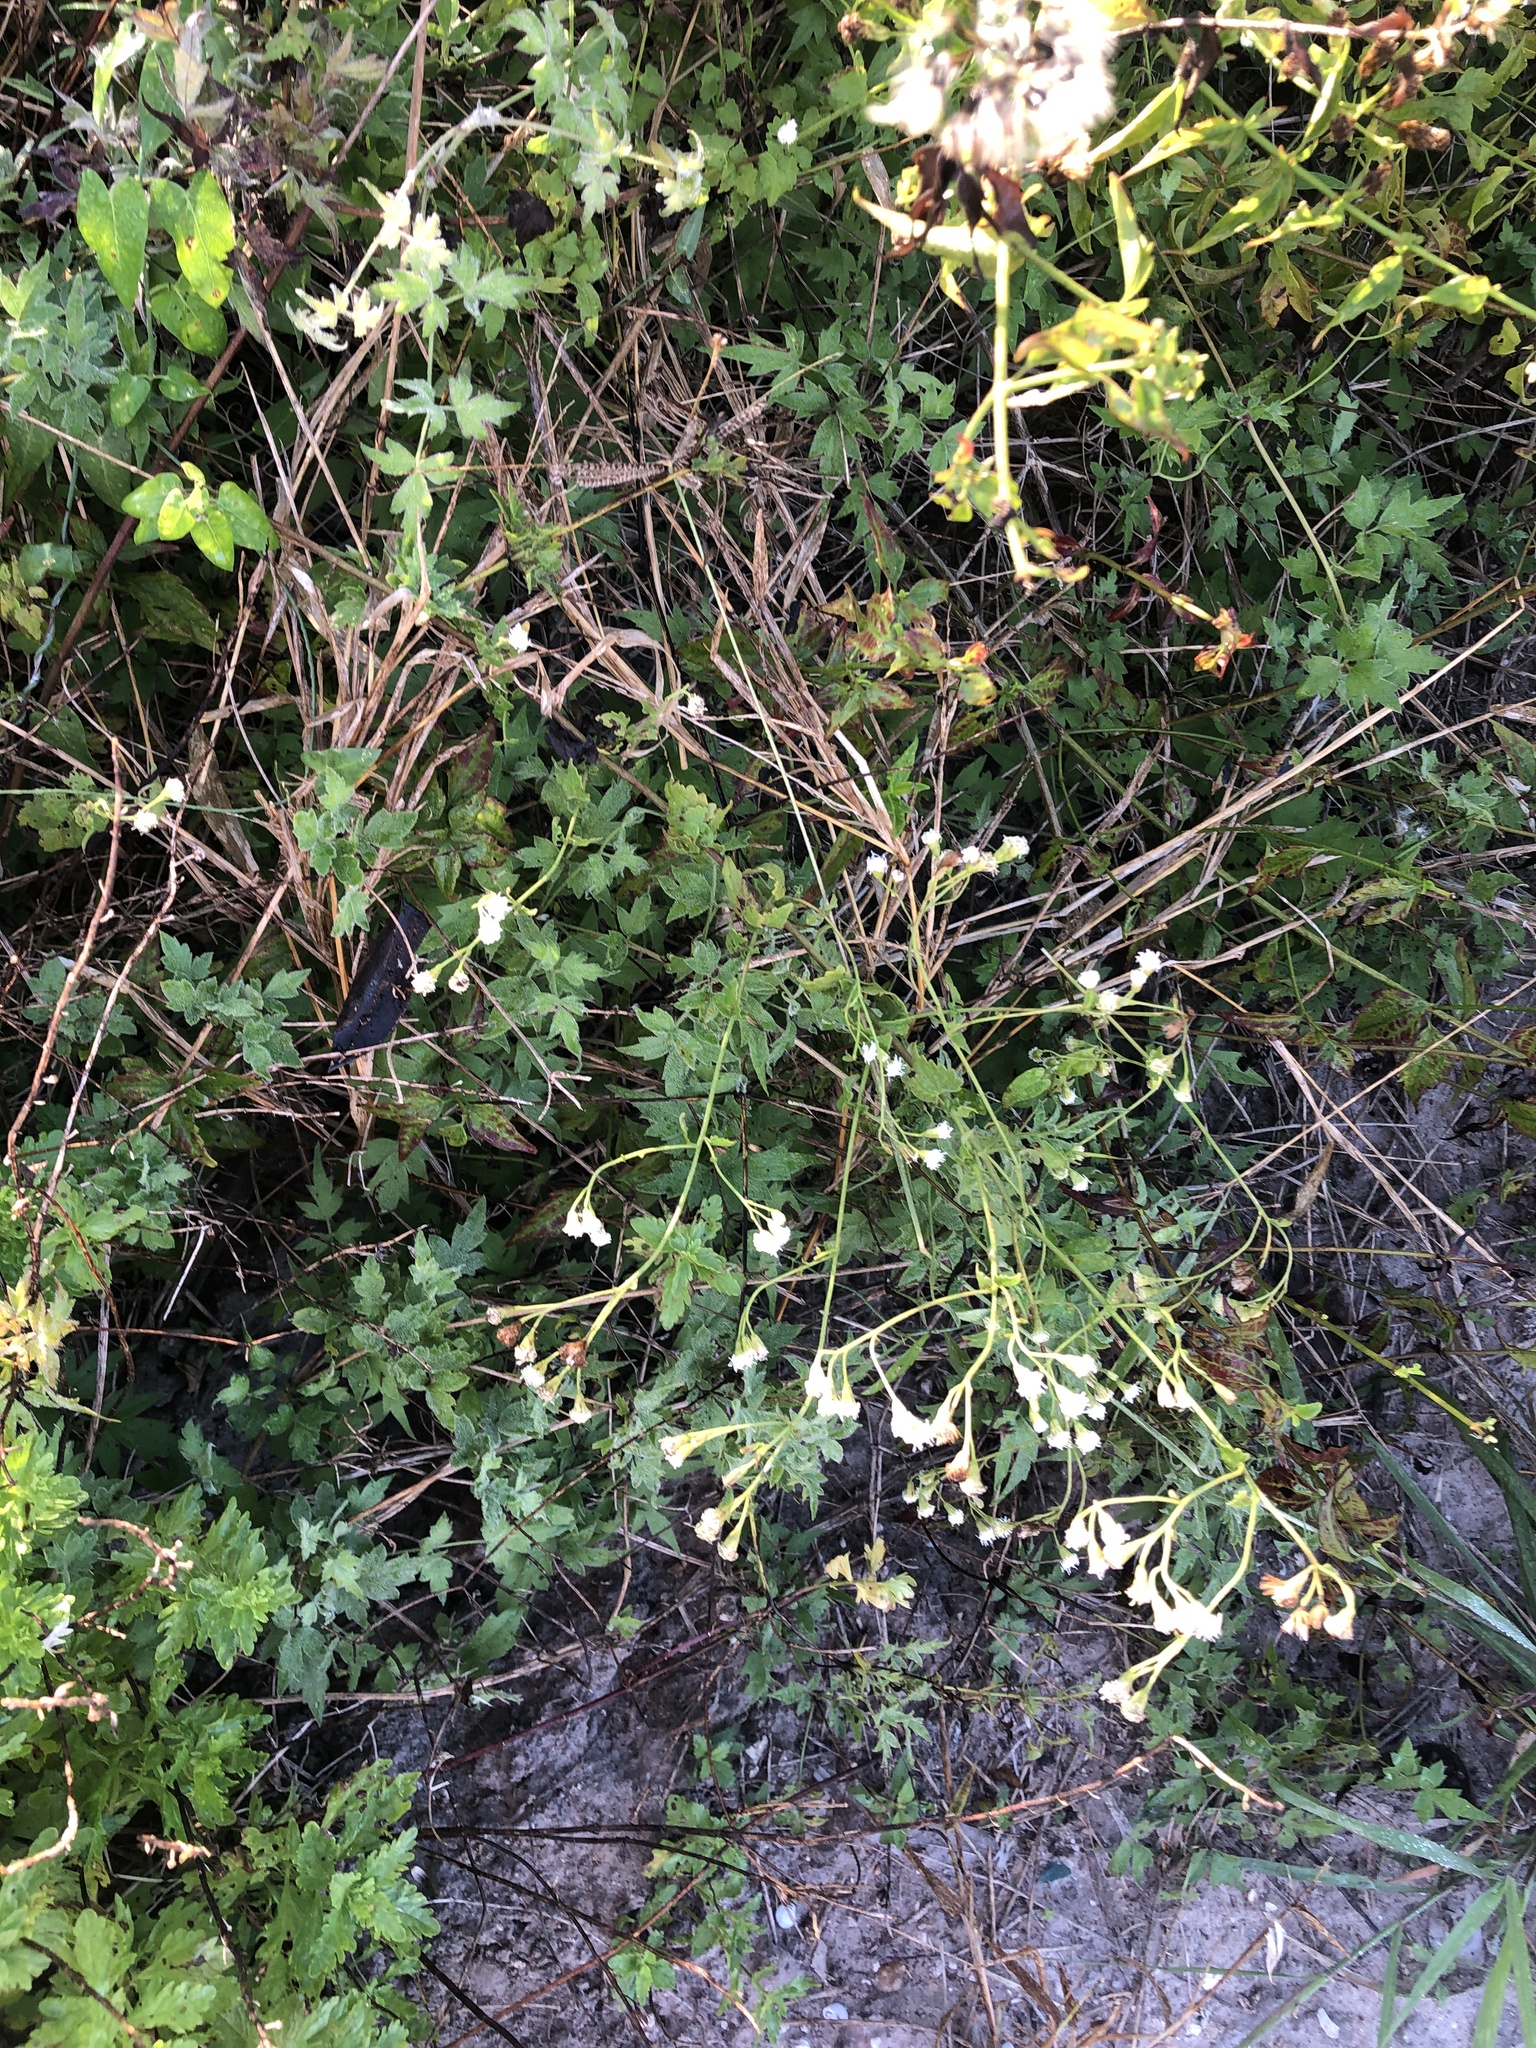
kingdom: Plantae
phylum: Tracheophyta
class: Magnoliopsida
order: Asterales
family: Asteraceae
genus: Fleischmannia
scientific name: Fleischmannia incarnata
